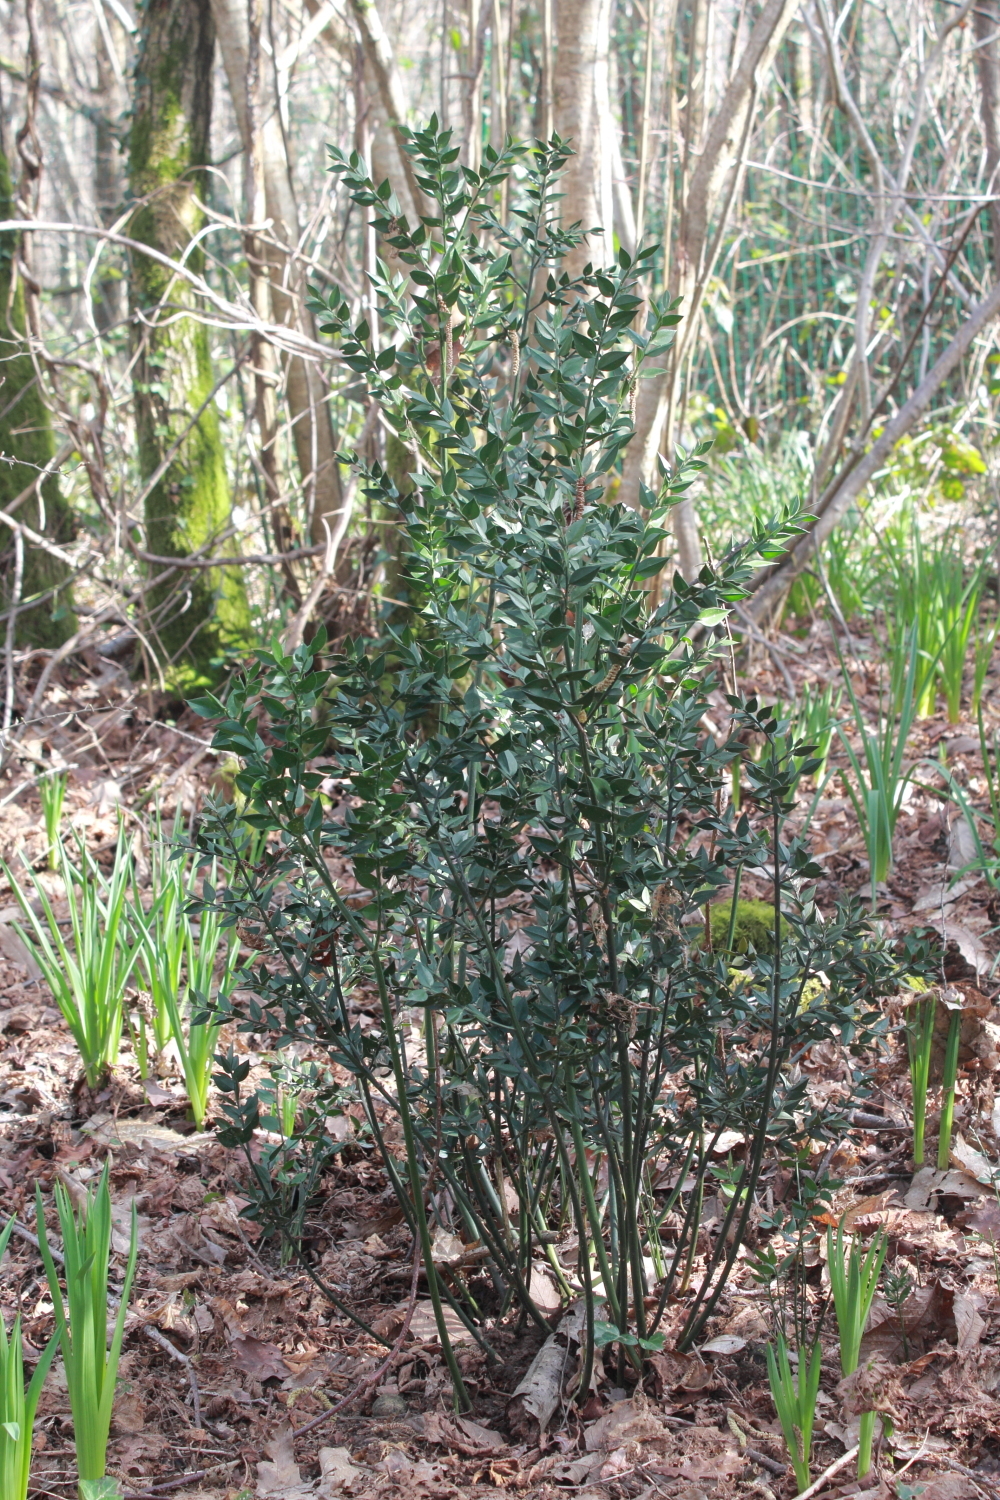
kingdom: Plantae
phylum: Tracheophyta
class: Liliopsida
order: Asparagales
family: Asparagaceae
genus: Ruscus
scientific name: Ruscus aculeatus
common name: Butcher's-broom
